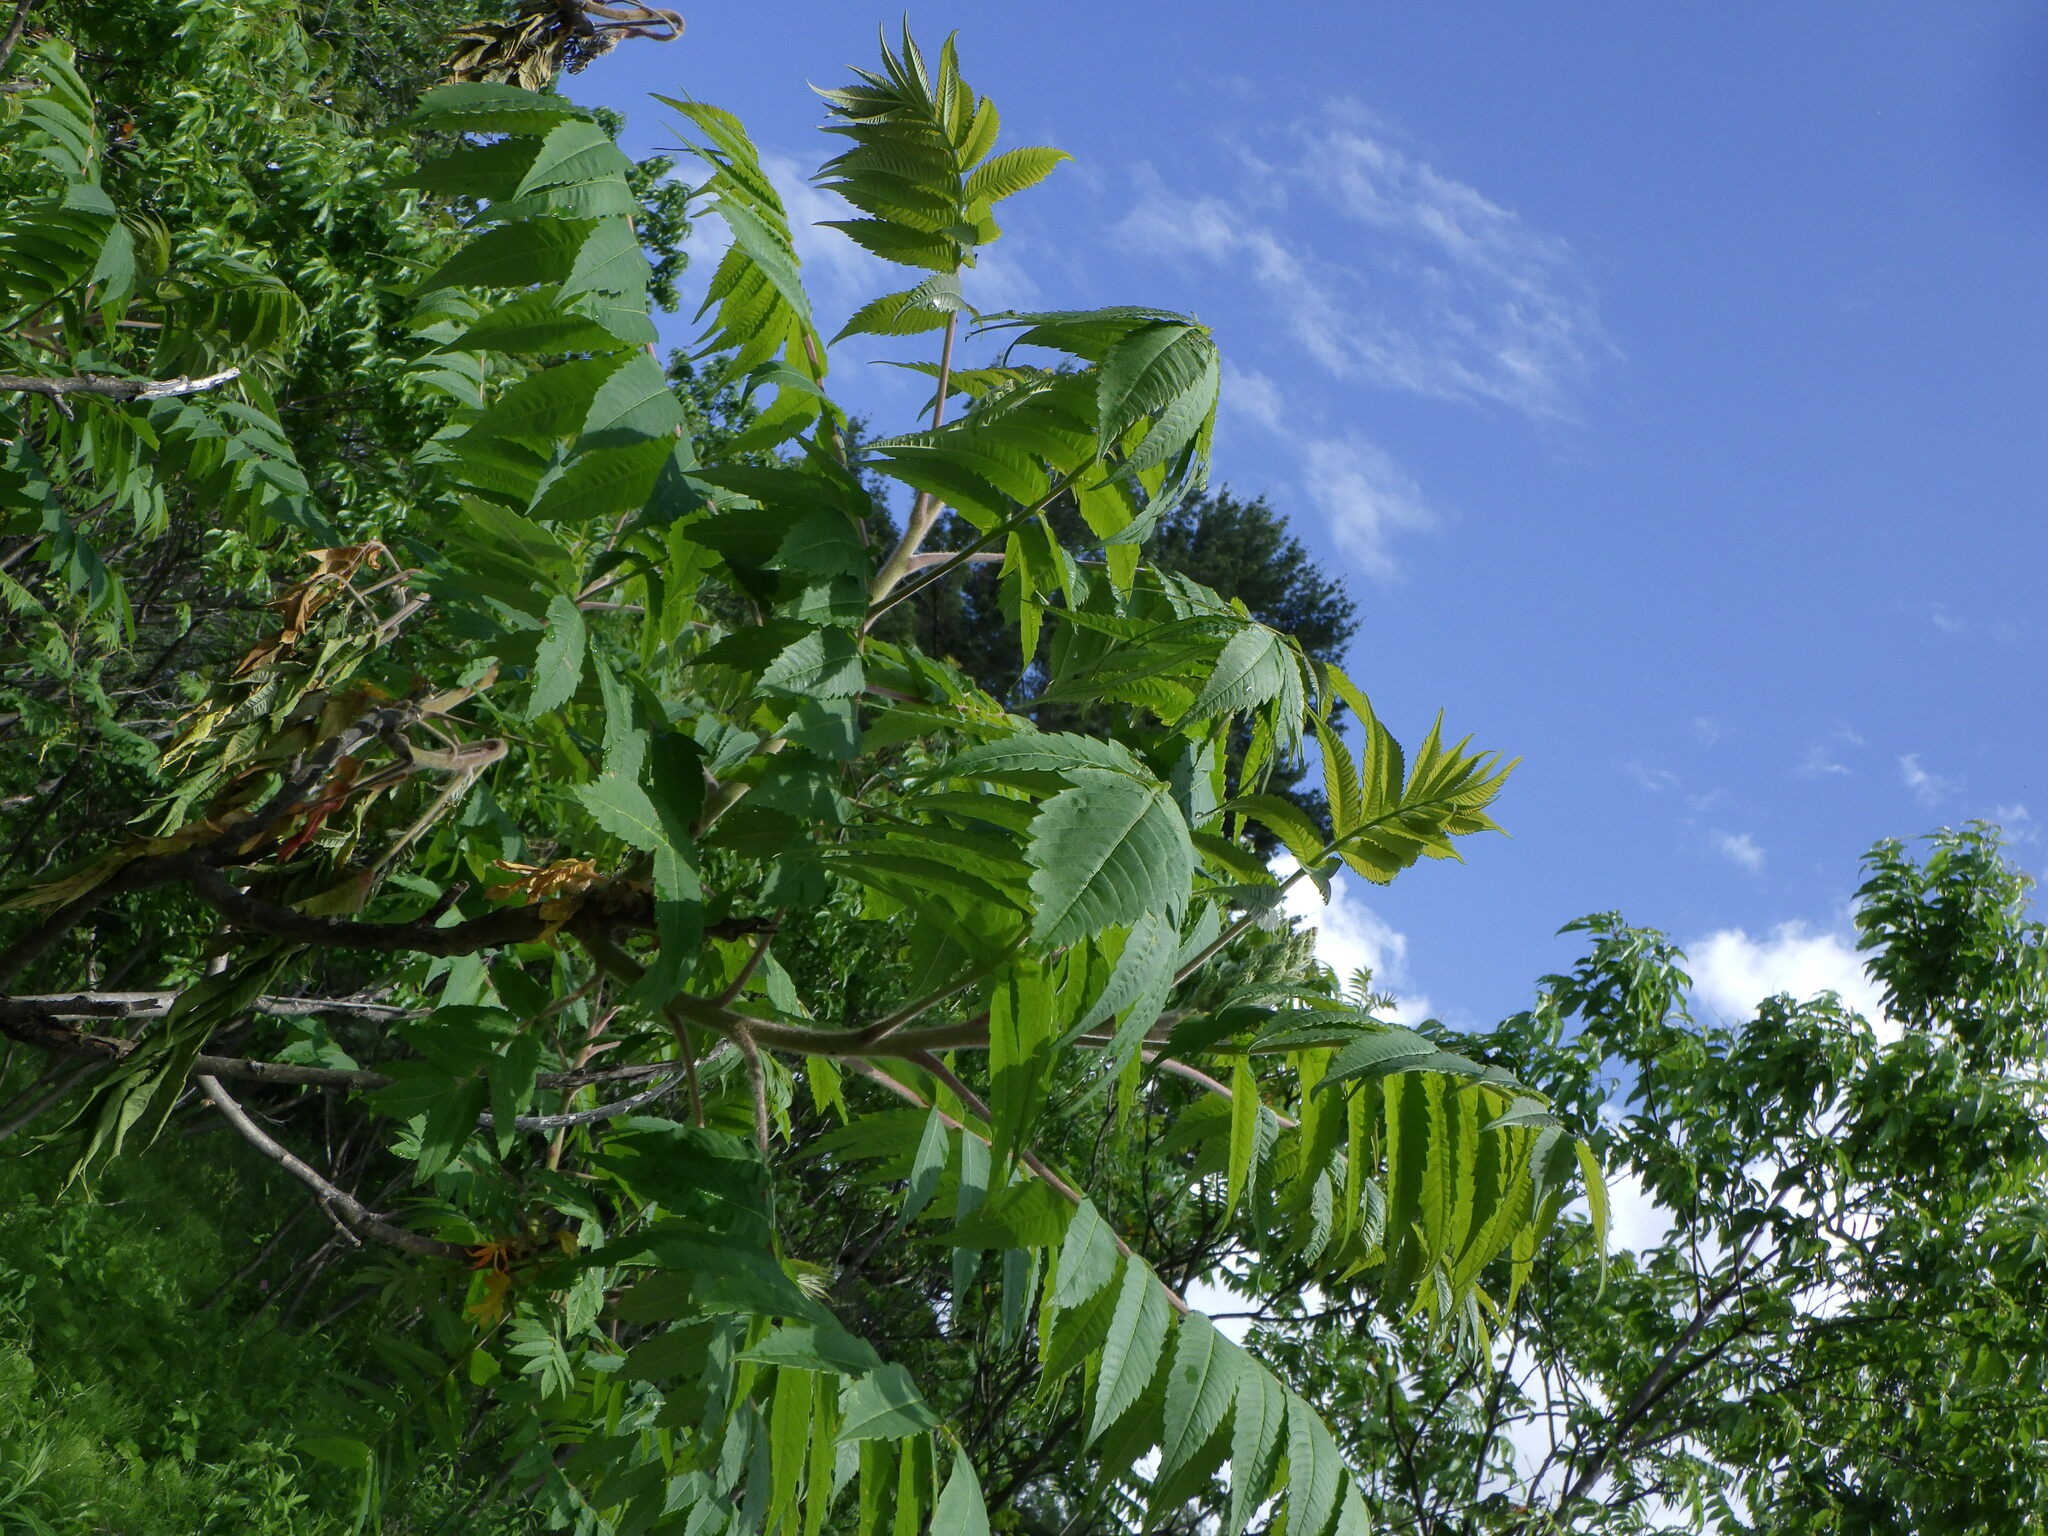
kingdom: Plantae
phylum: Tracheophyta
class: Magnoliopsida
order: Sapindales
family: Anacardiaceae
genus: Rhus
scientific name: Rhus typhina
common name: Staghorn sumac
